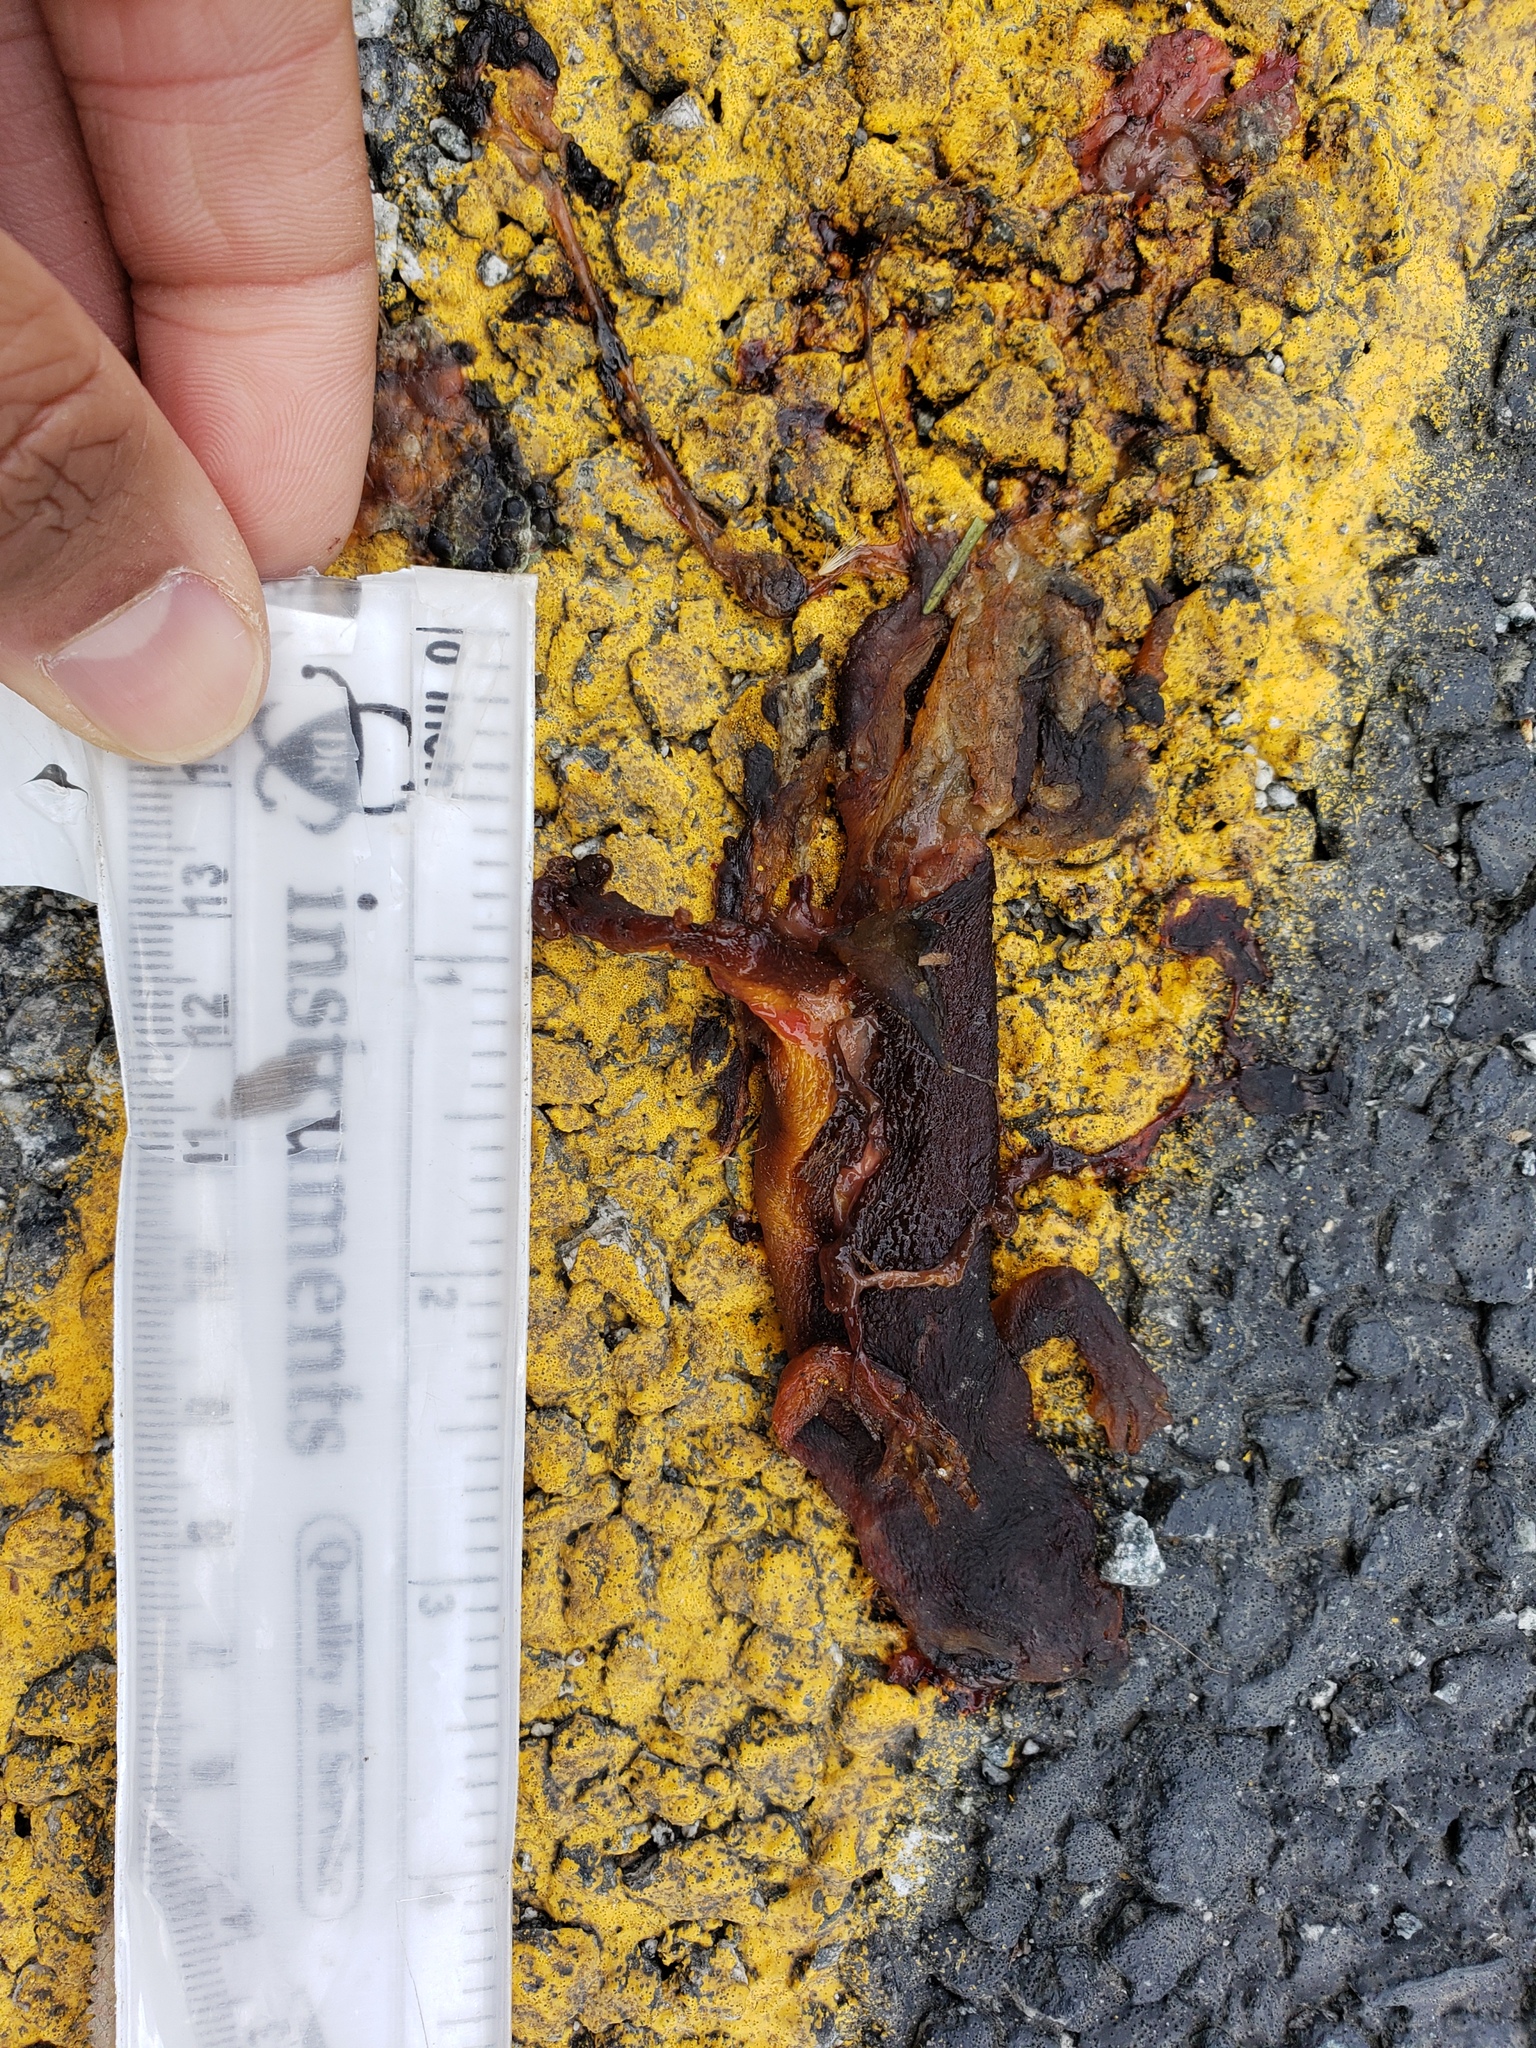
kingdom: Animalia
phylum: Chordata
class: Amphibia
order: Caudata
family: Salamandridae
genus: Taricha
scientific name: Taricha
